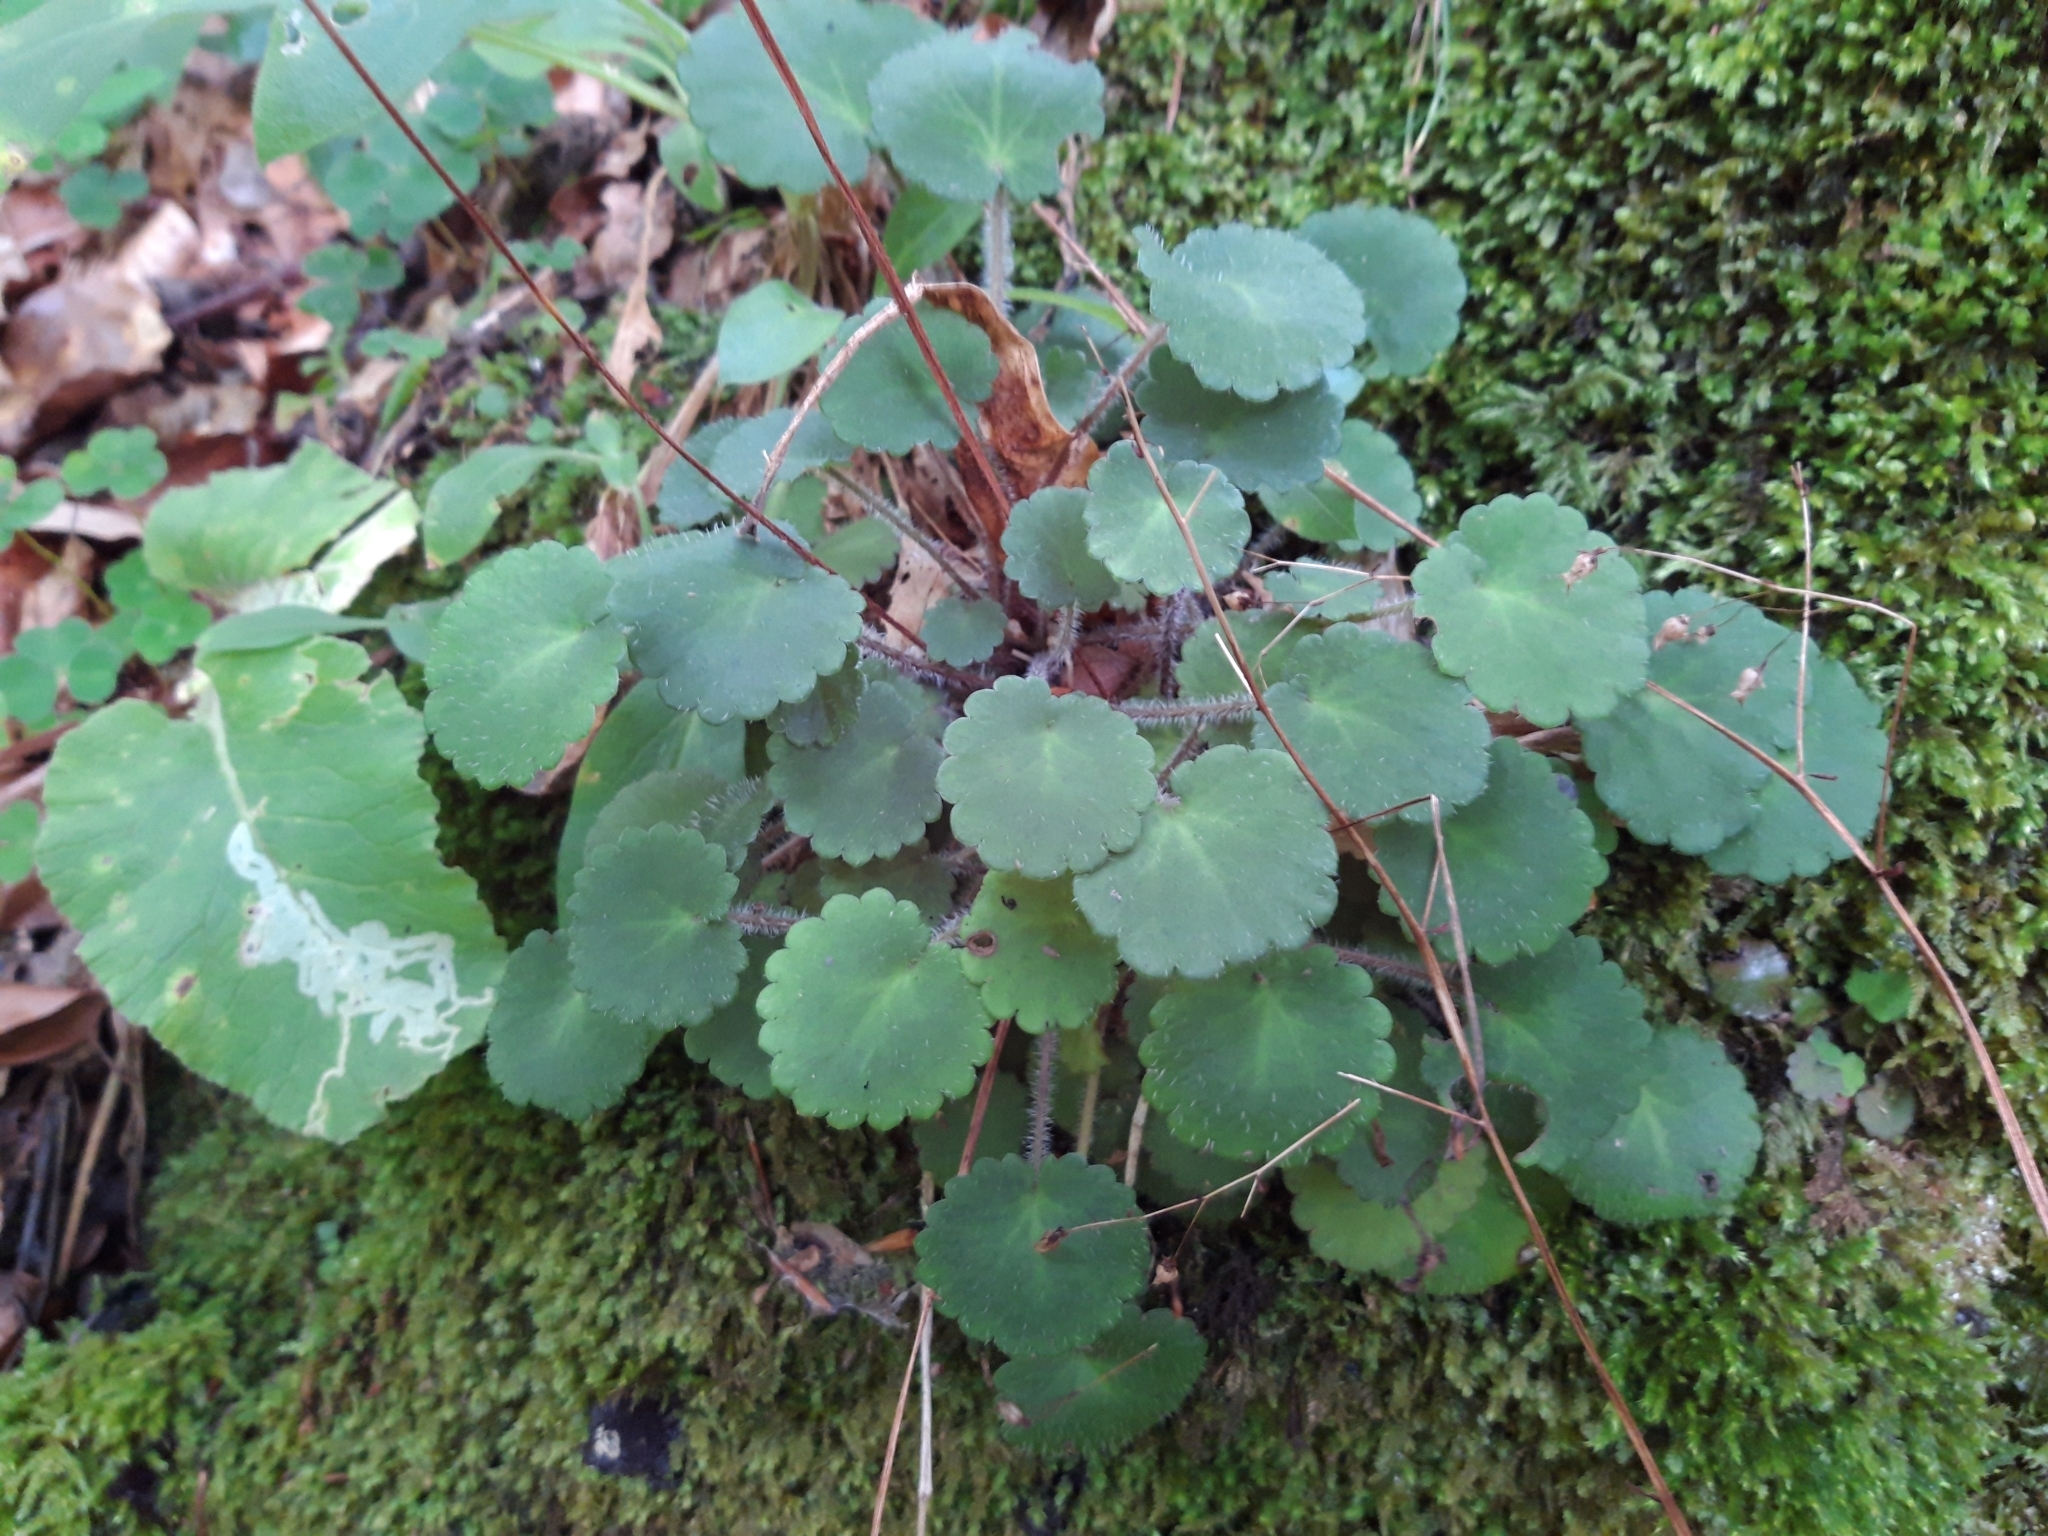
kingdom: Plantae
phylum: Tracheophyta
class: Magnoliopsida
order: Saxifragales
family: Saxifragaceae
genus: Saxifraga
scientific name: Saxifraga hirsuta
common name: Kidney saxifrage
